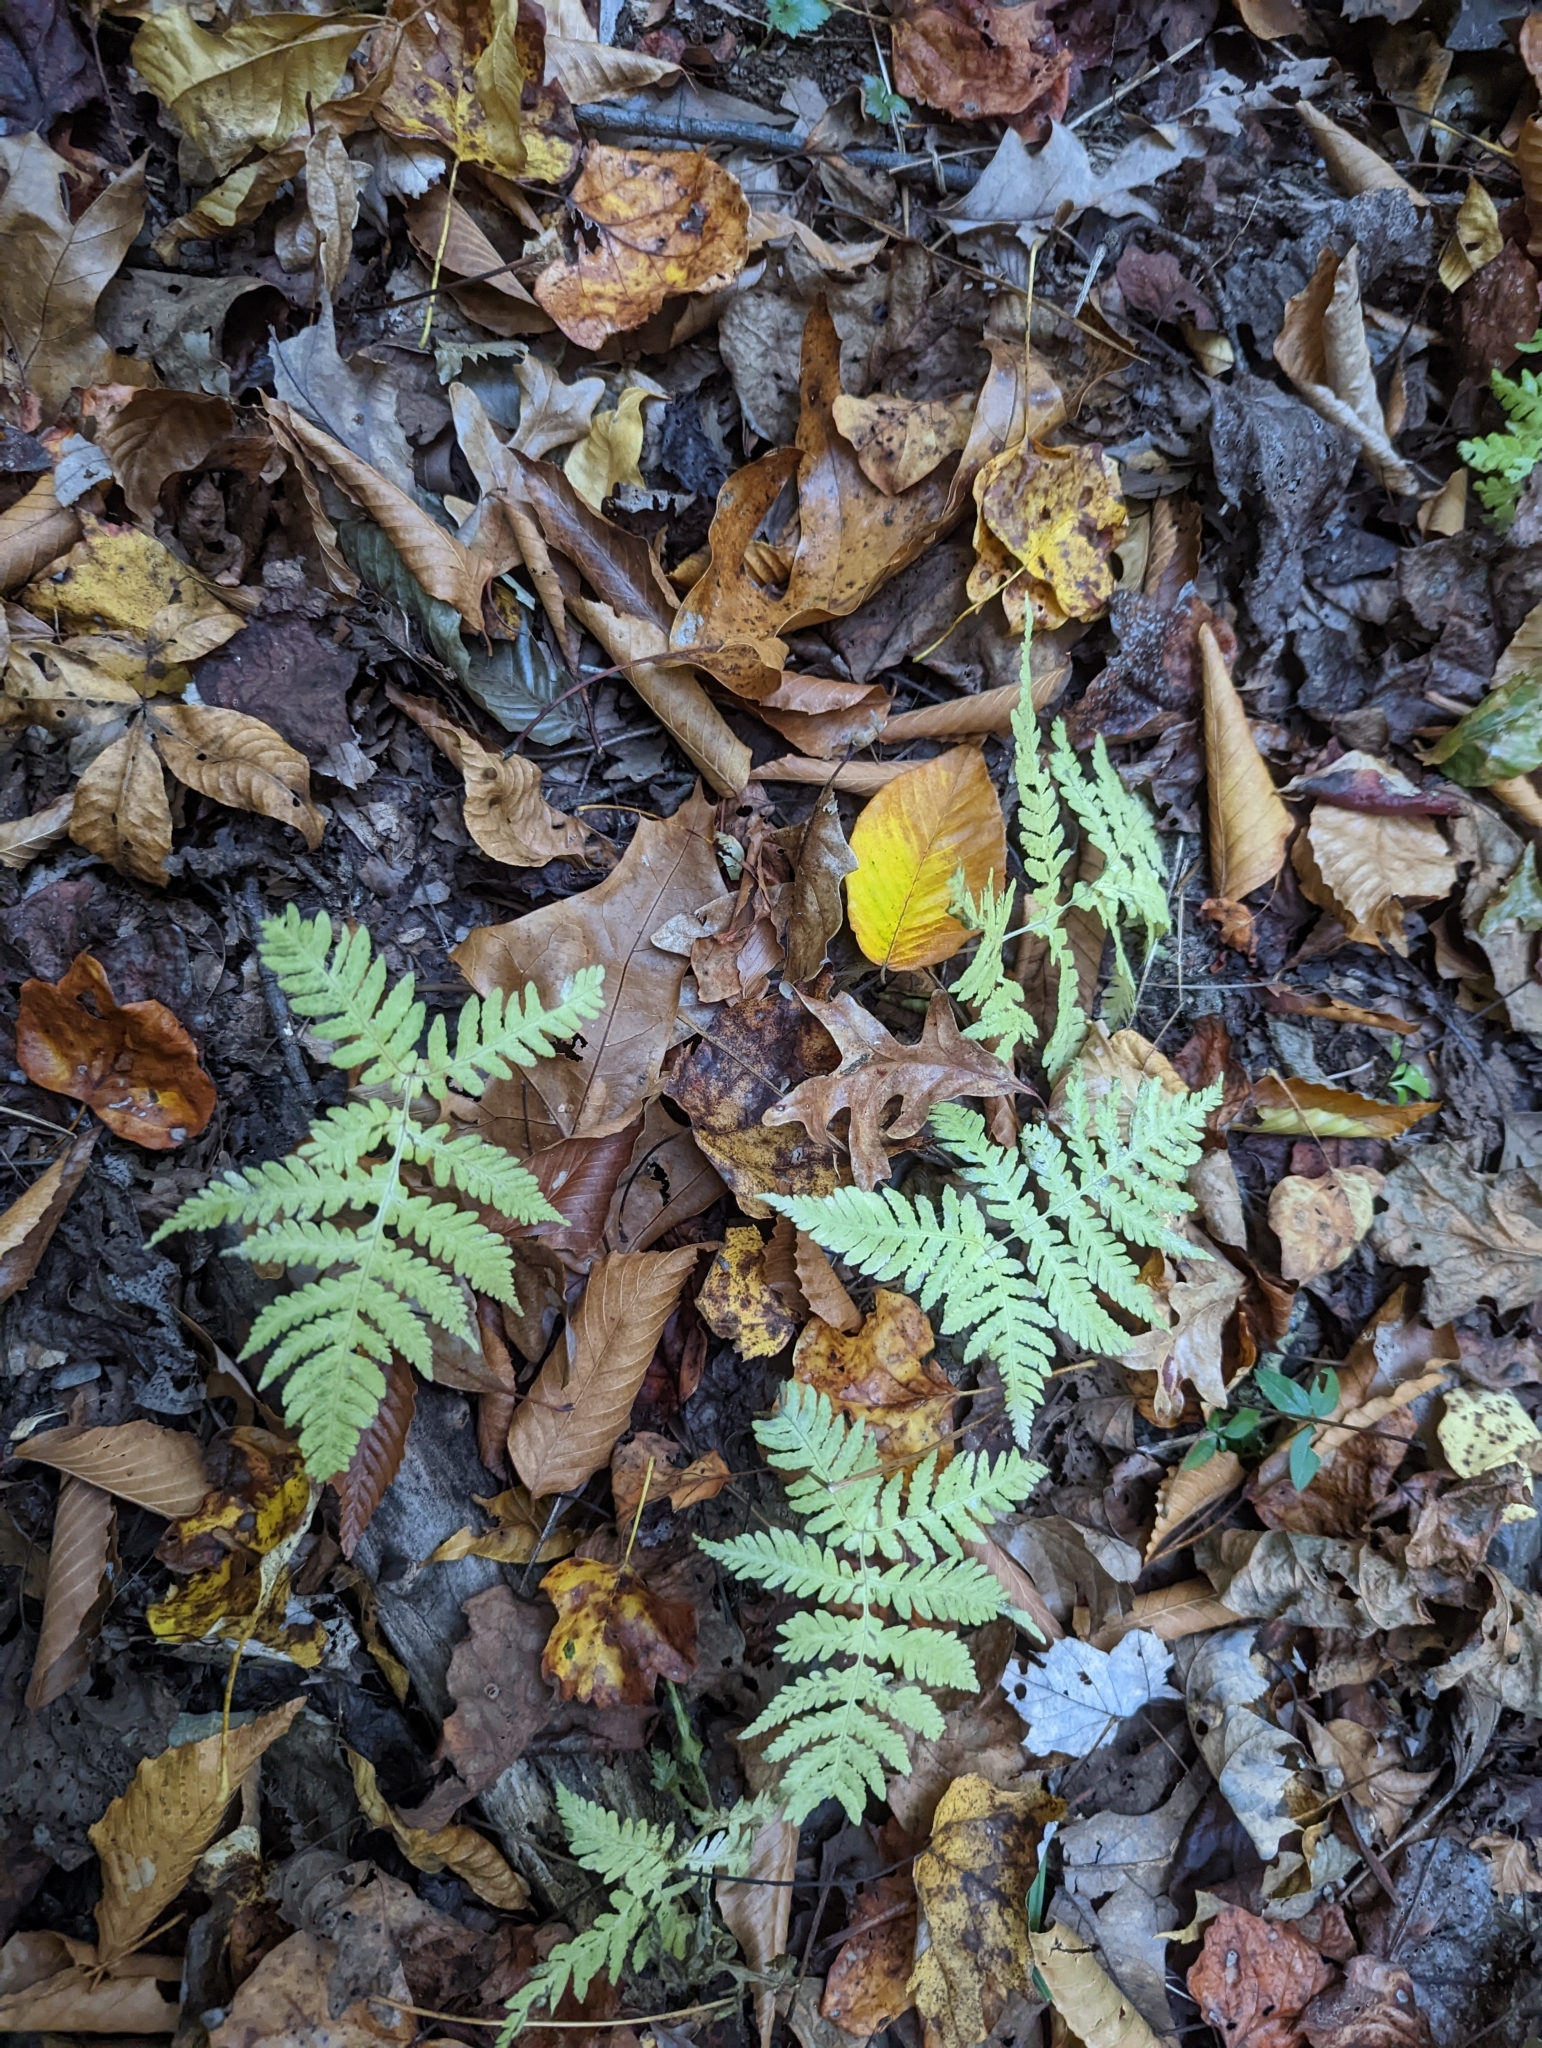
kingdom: Plantae
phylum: Tracheophyta
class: Polypodiopsida
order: Polypodiales
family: Thelypteridaceae
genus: Phegopteris
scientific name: Phegopteris hexagonoptera
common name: Broad beech fern
